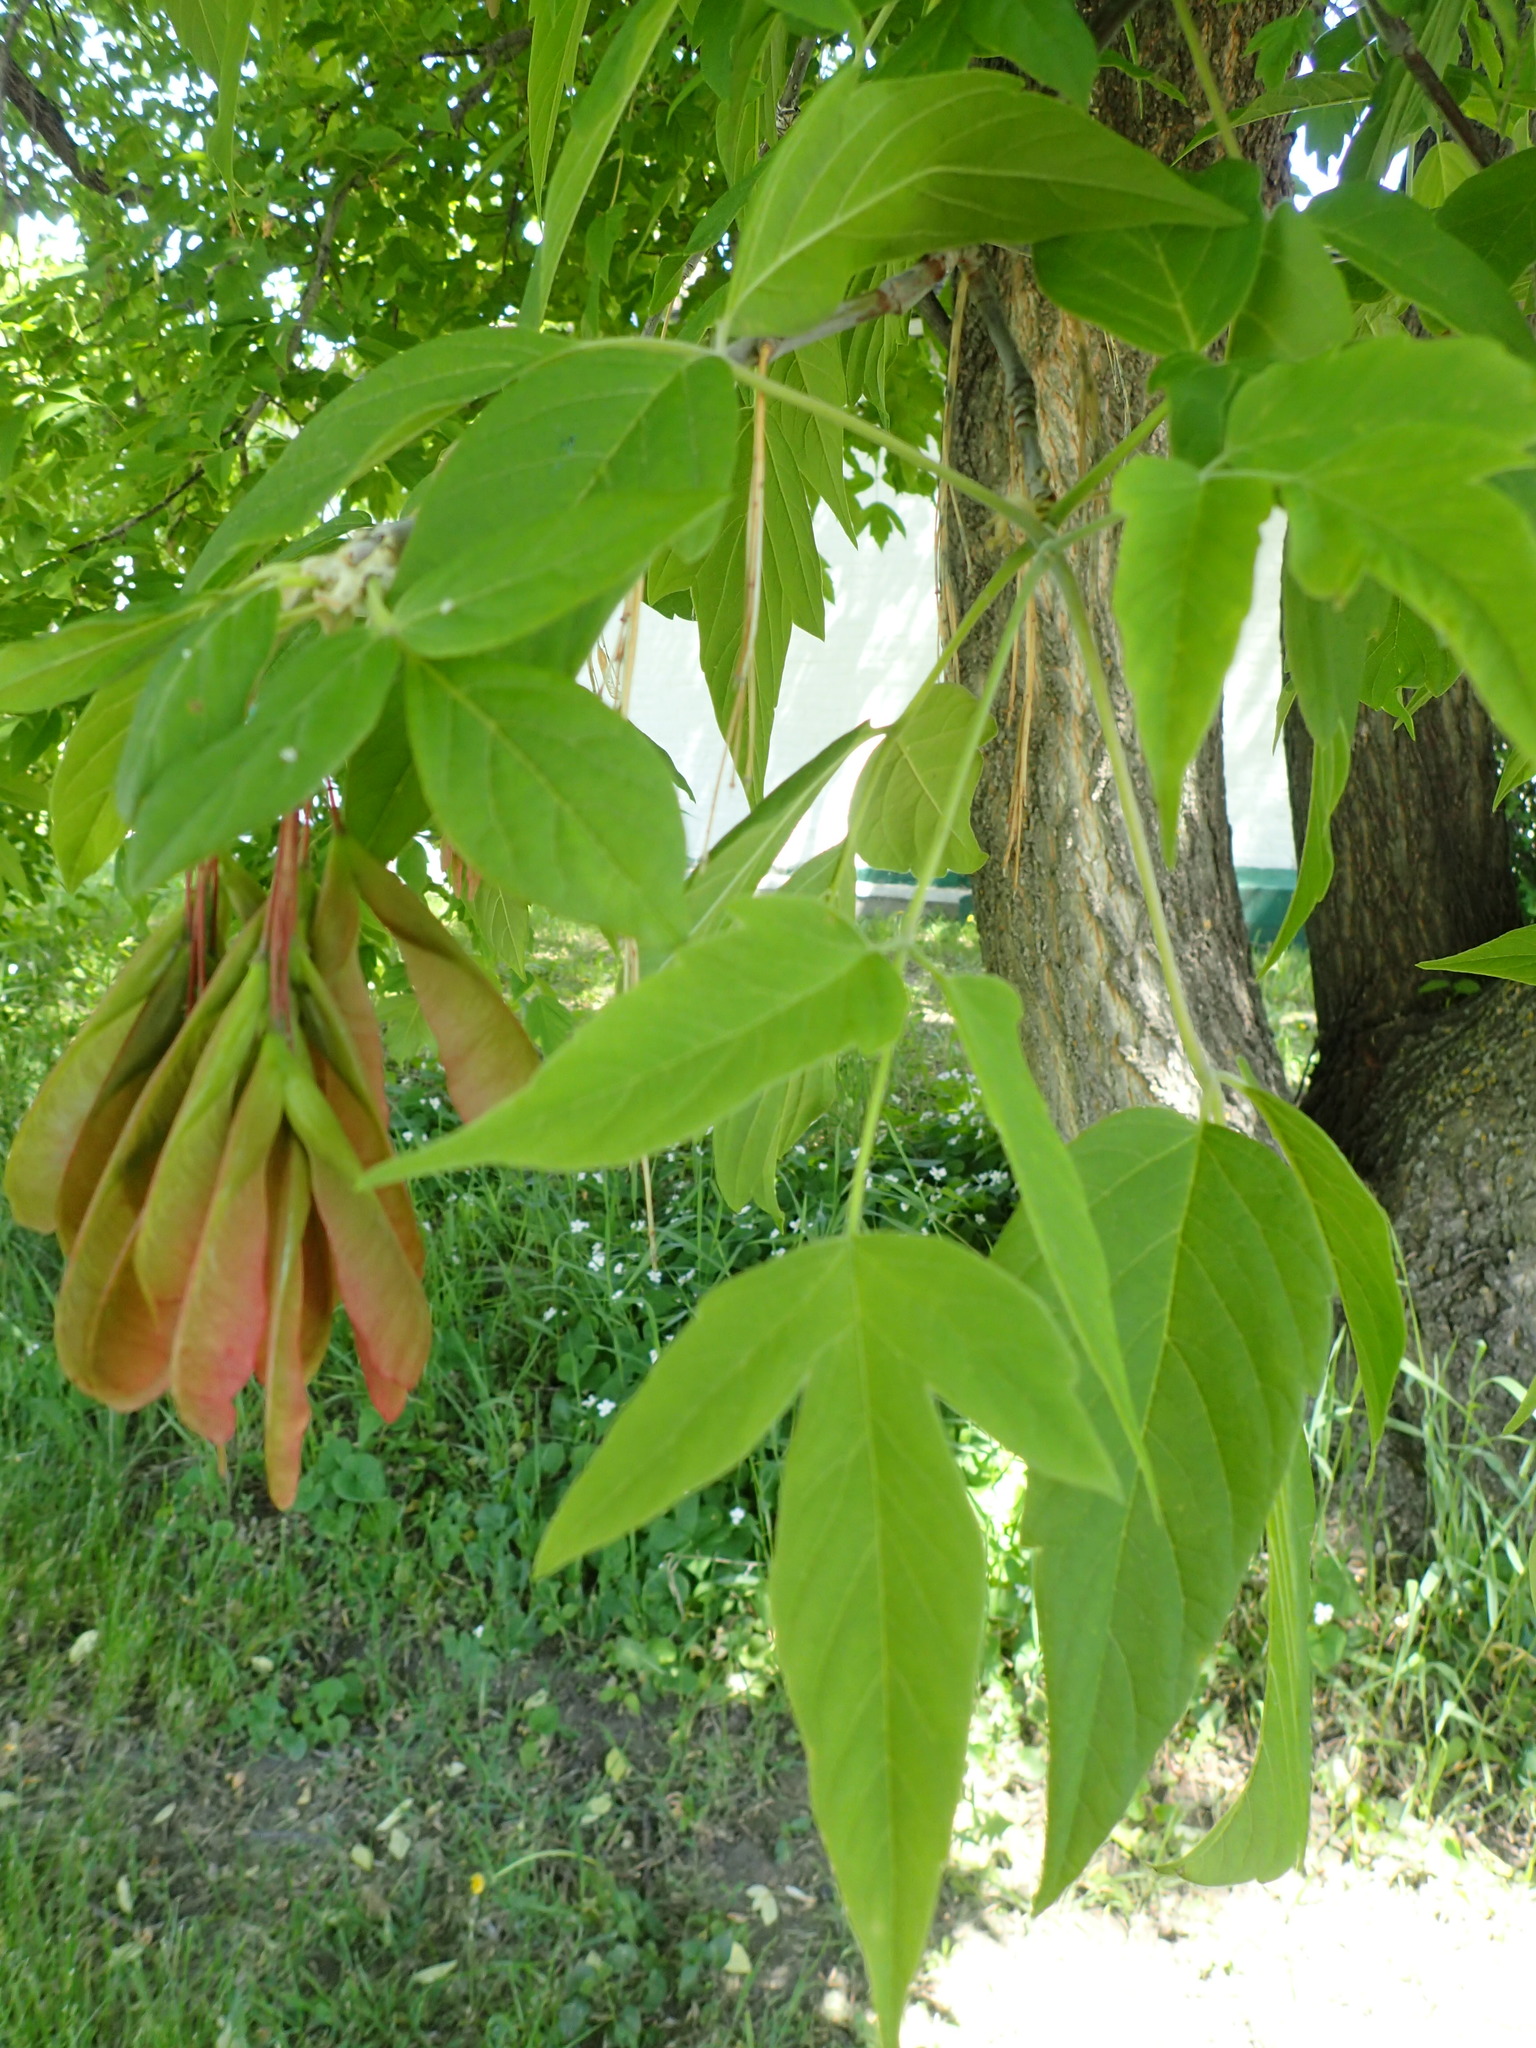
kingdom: Plantae
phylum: Tracheophyta
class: Magnoliopsida
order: Sapindales
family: Sapindaceae
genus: Acer
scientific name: Acer negundo
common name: Ashleaf maple
